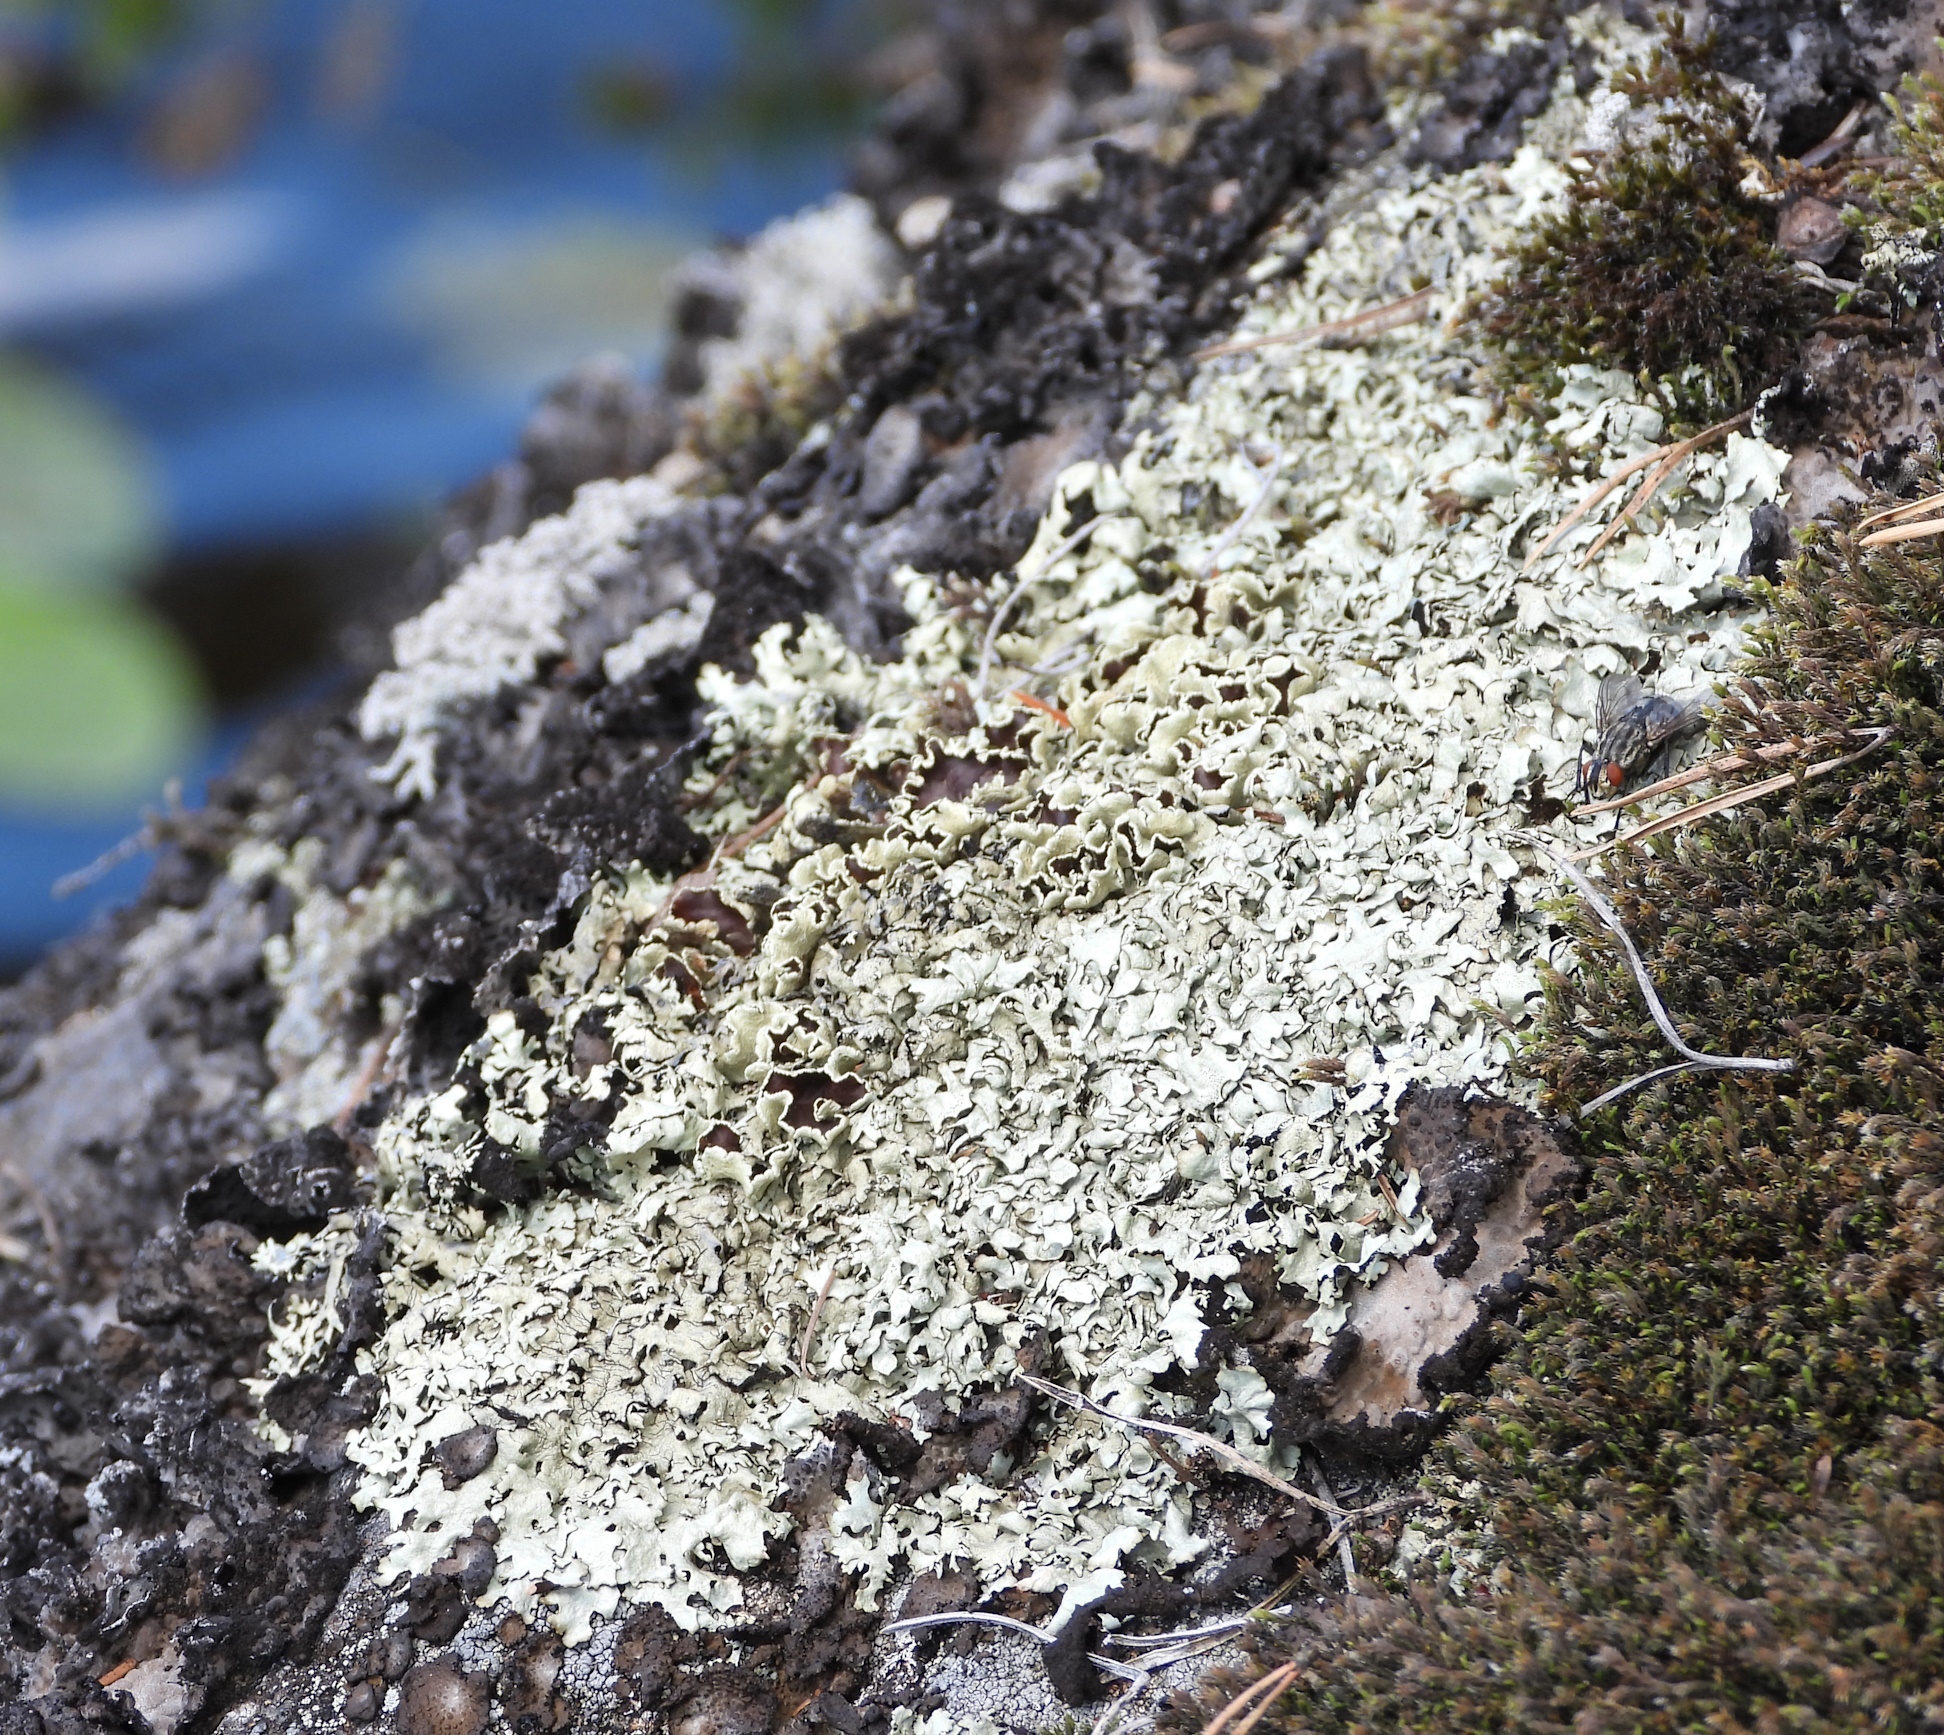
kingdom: Fungi
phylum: Ascomycota
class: Lecanoromycetes
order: Lecanorales
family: Parmeliaceae
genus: Xanthoparmelia
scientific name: Xanthoparmelia stenophylla
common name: Shingled rock shield
